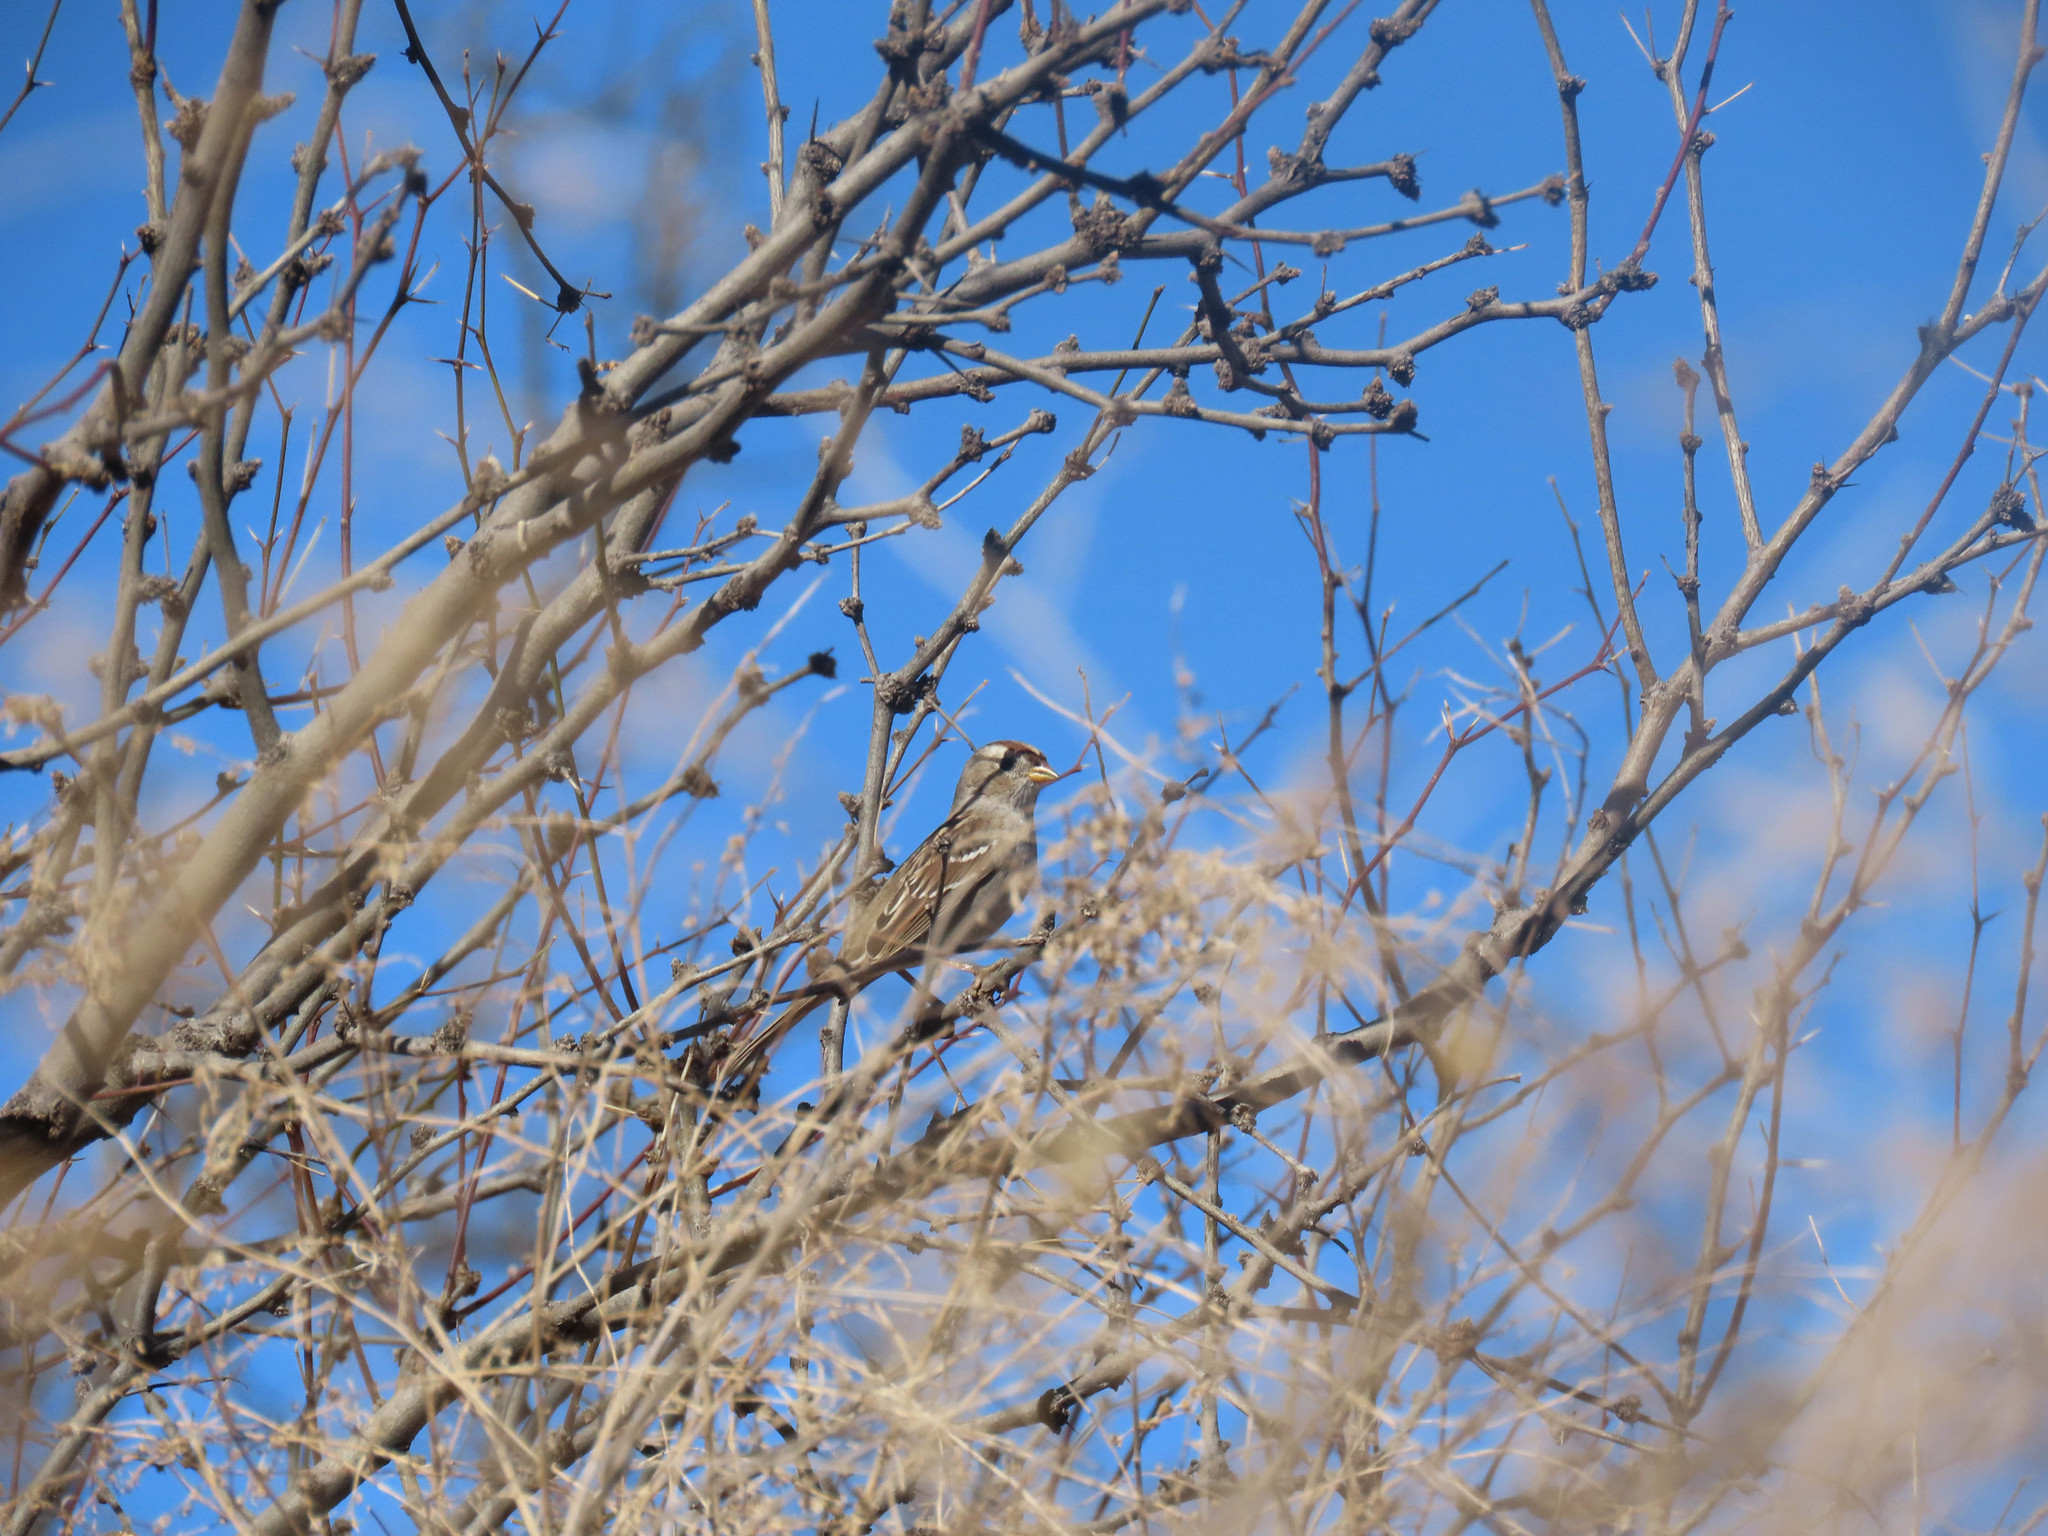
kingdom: Animalia
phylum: Chordata
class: Aves
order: Passeriformes
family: Passerellidae
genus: Zonotrichia
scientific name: Zonotrichia leucophrys
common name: White-crowned sparrow
